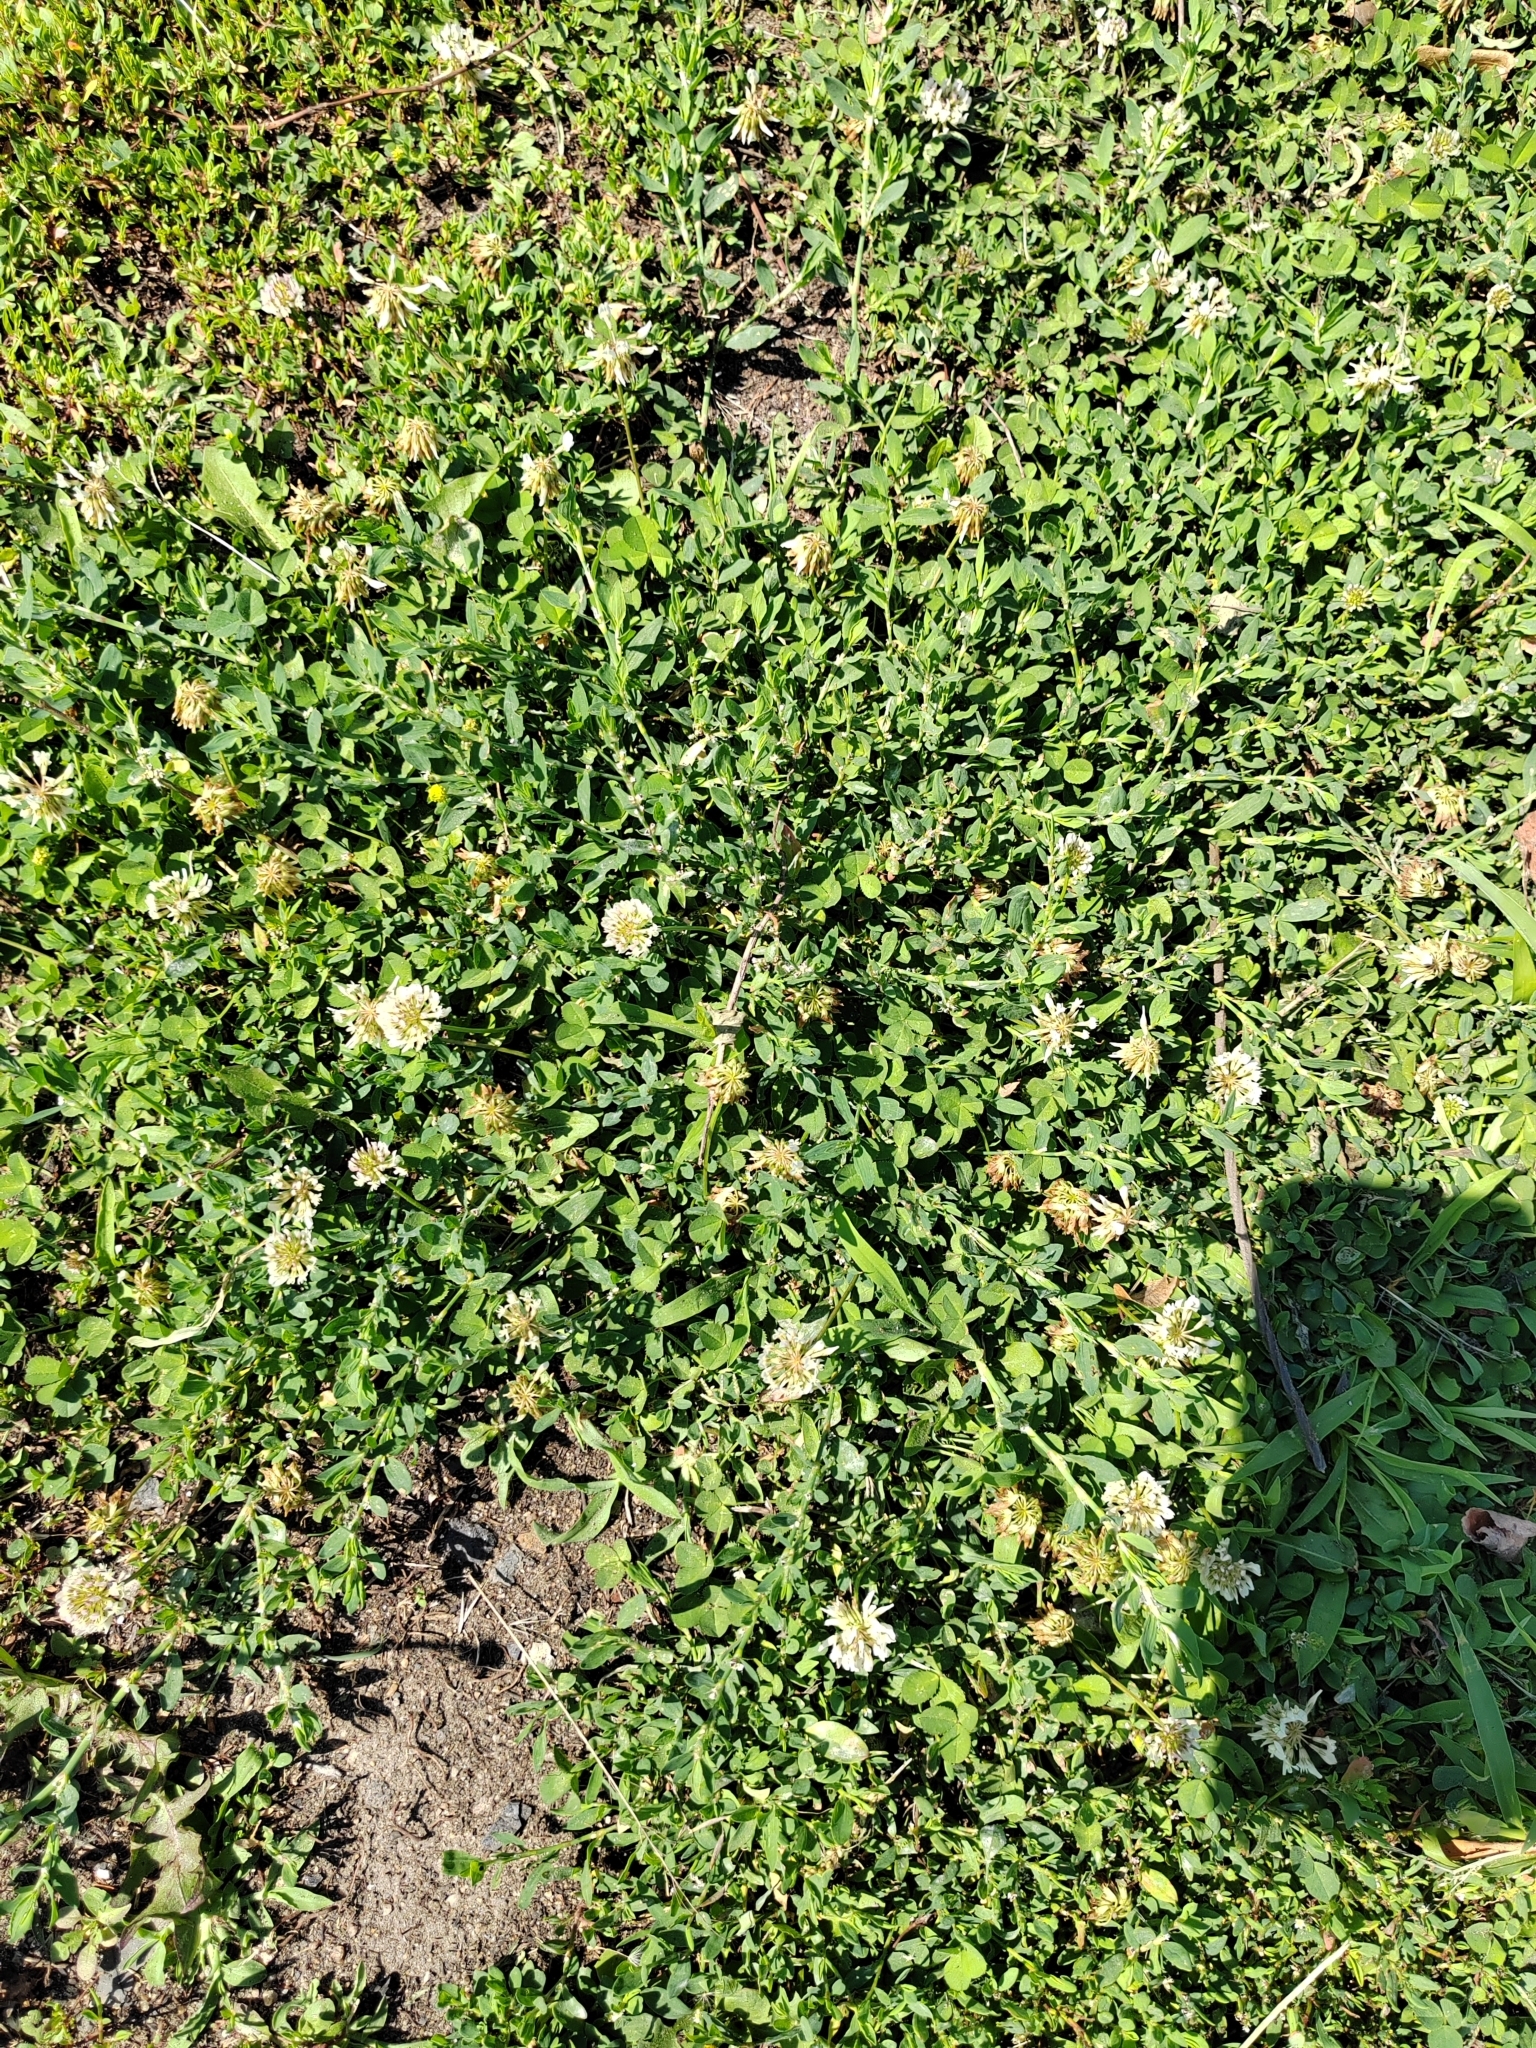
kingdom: Plantae
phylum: Tracheophyta
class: Magnoliopsida
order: Fabales
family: Fabaceae
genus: Trifolium
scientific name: Trifolium repens
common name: White clover
